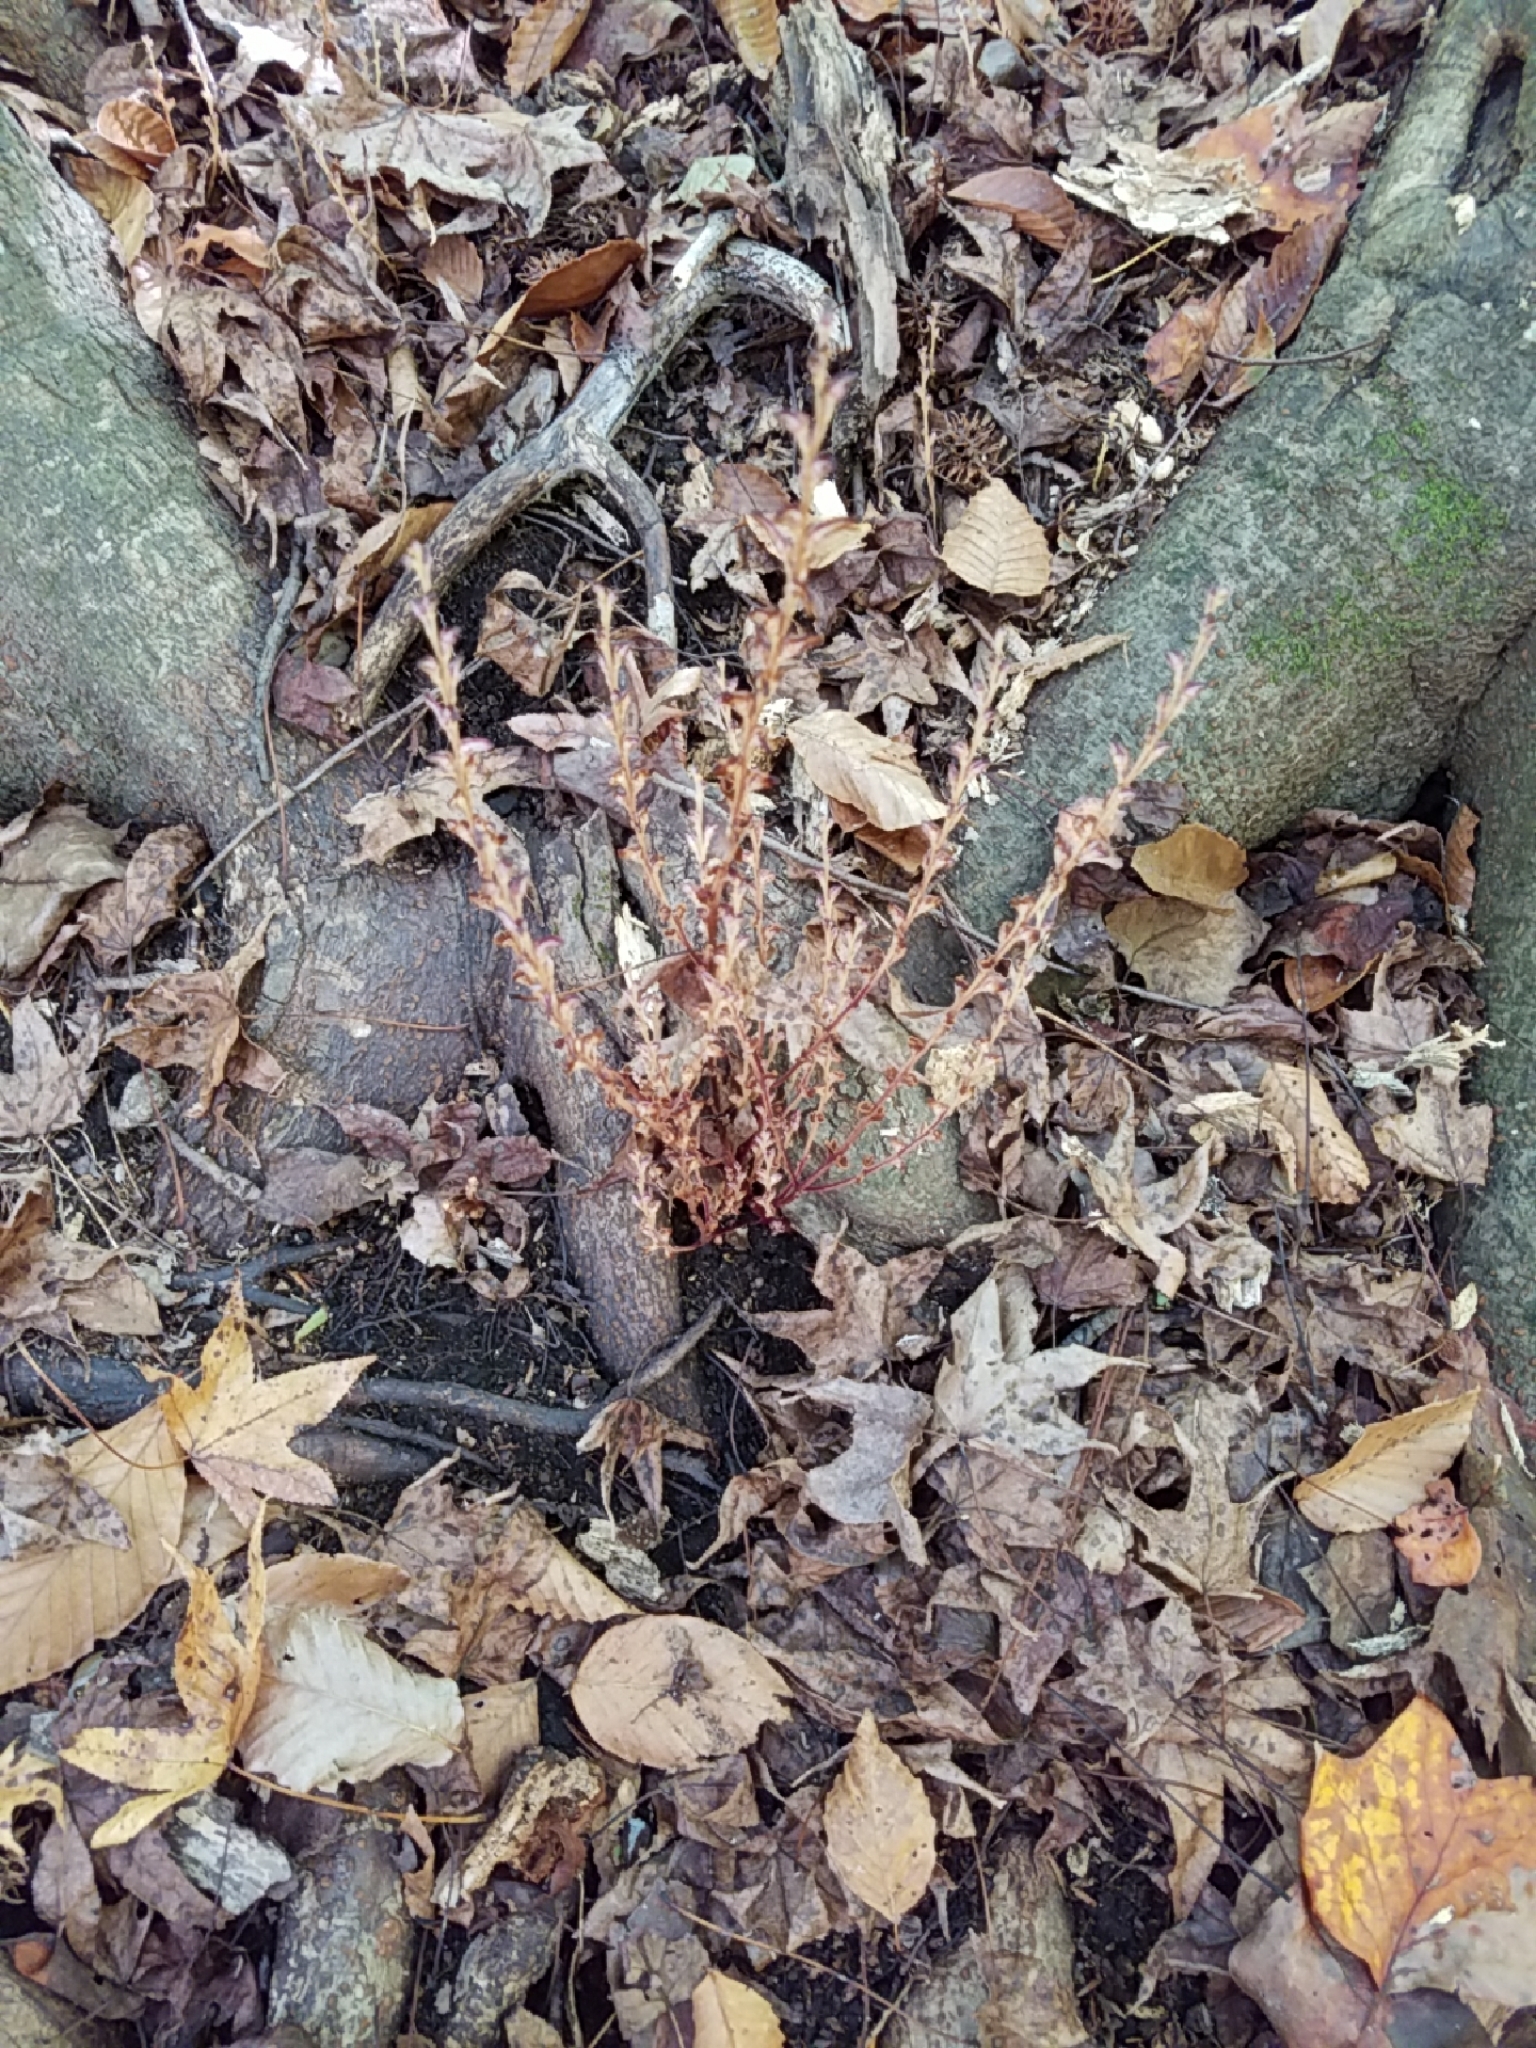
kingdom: Plantae
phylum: Tracheophyta
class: Magnoliopsida
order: Lamiales
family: Orobanchaceae
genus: Epifagus
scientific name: Epifagus virginiana
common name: Beechdrops
